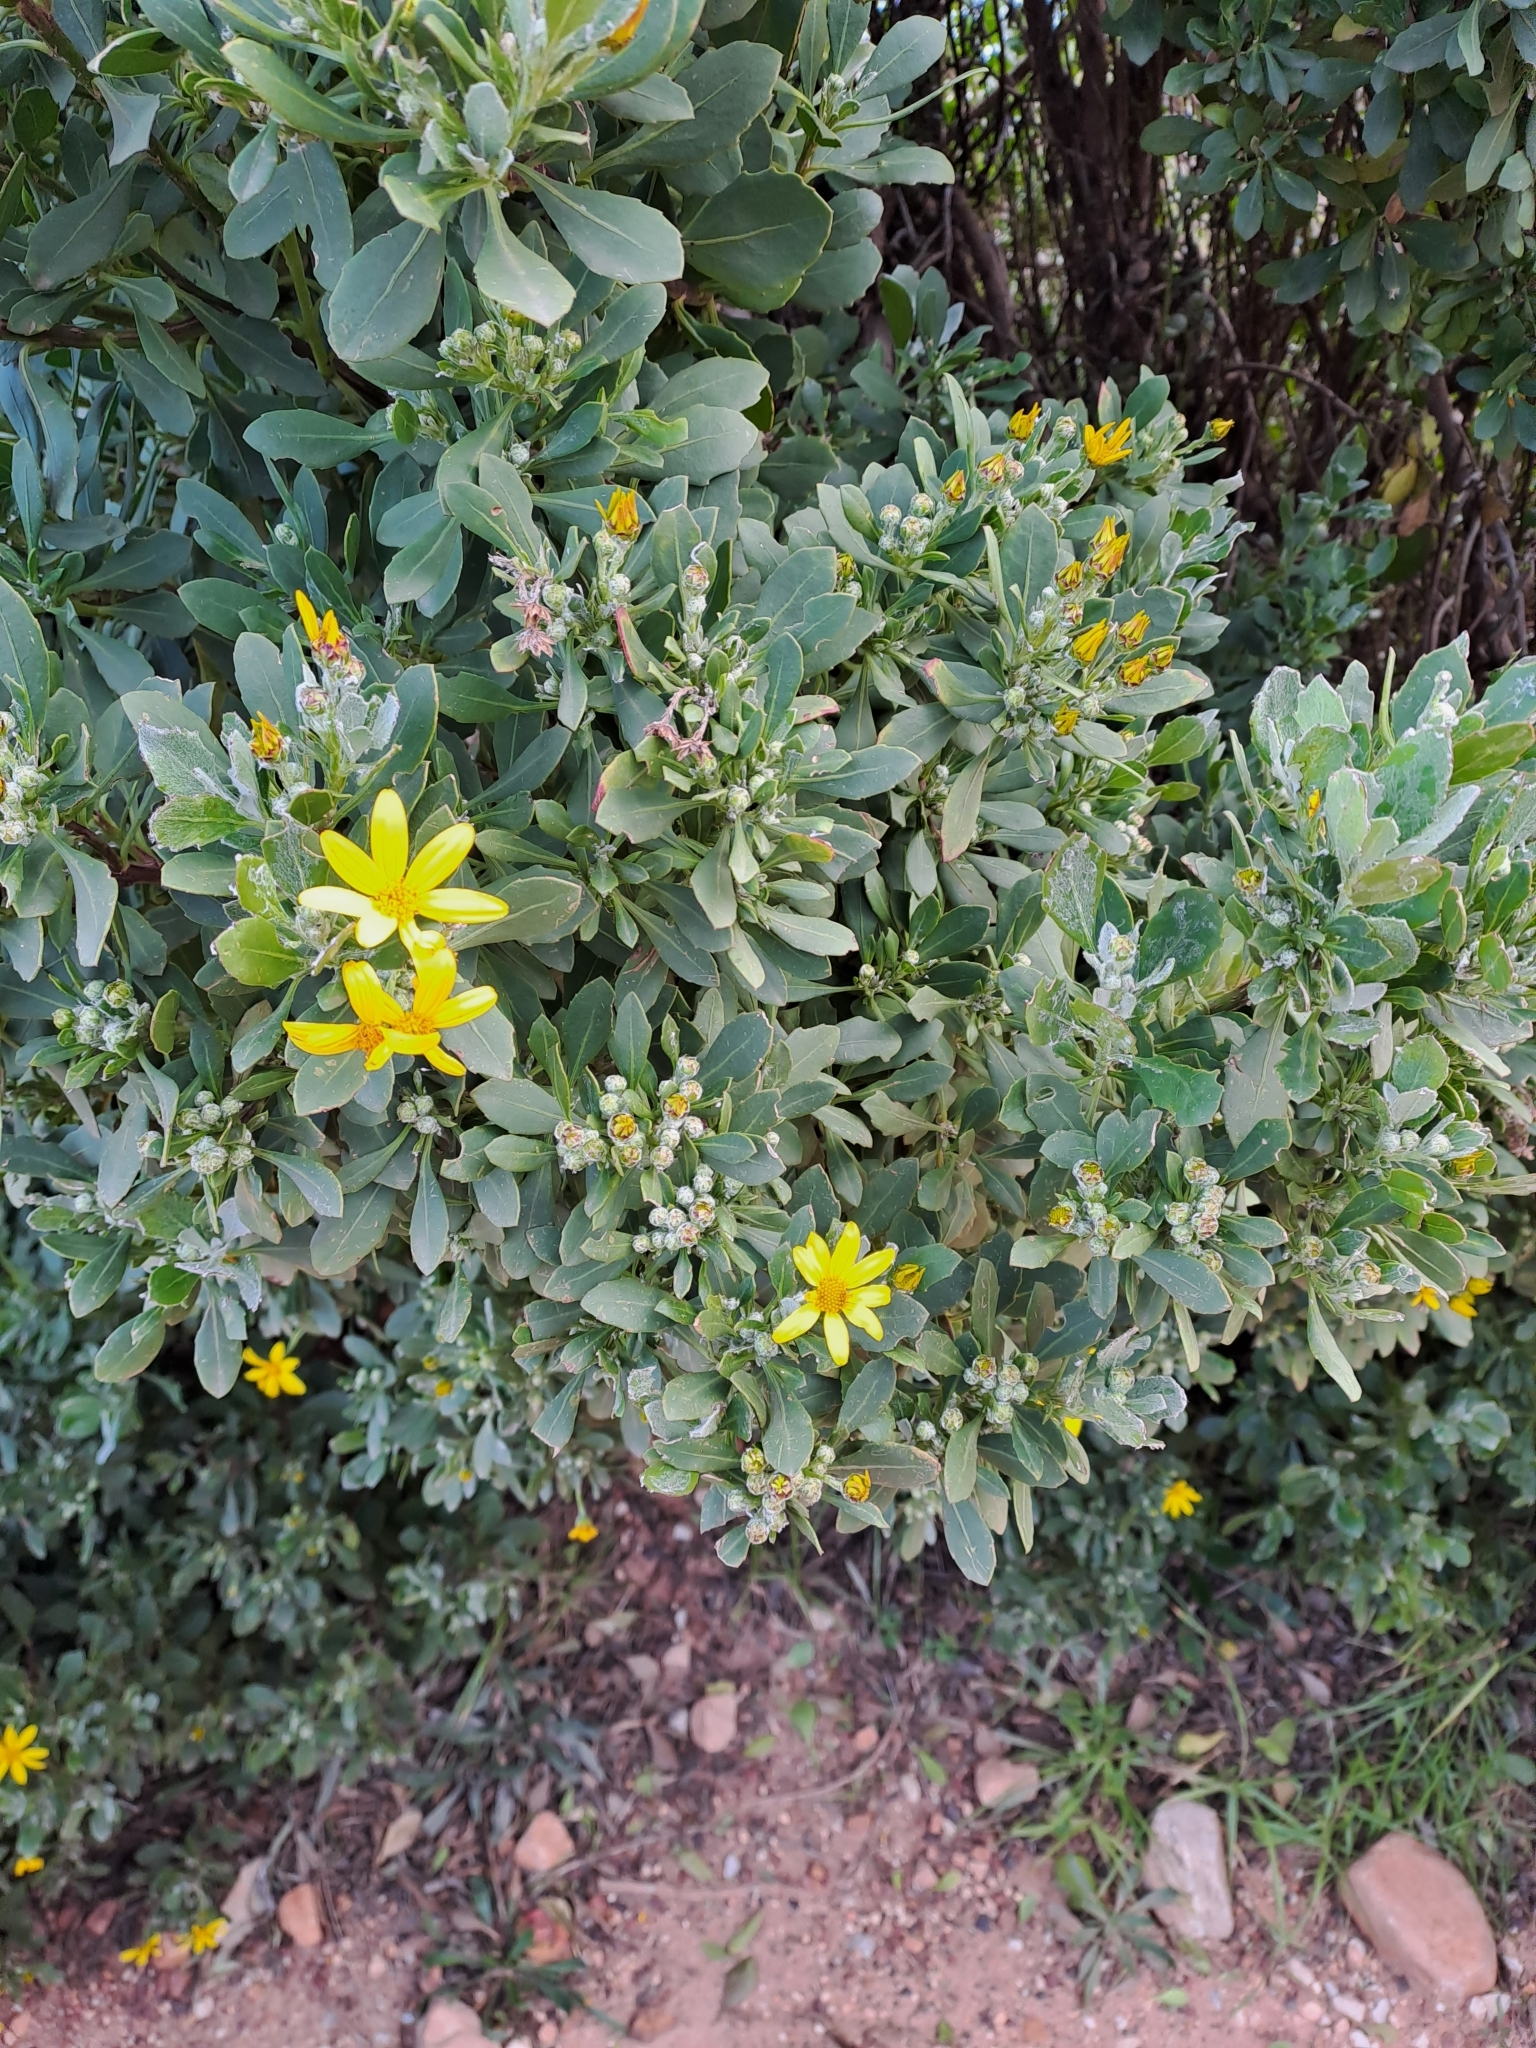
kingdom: Plantae
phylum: Tracheophyta
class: Magnoliopsida
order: Asterales
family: Asteraceae
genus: Osteospermum
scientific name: Osteospermum moniliferum
